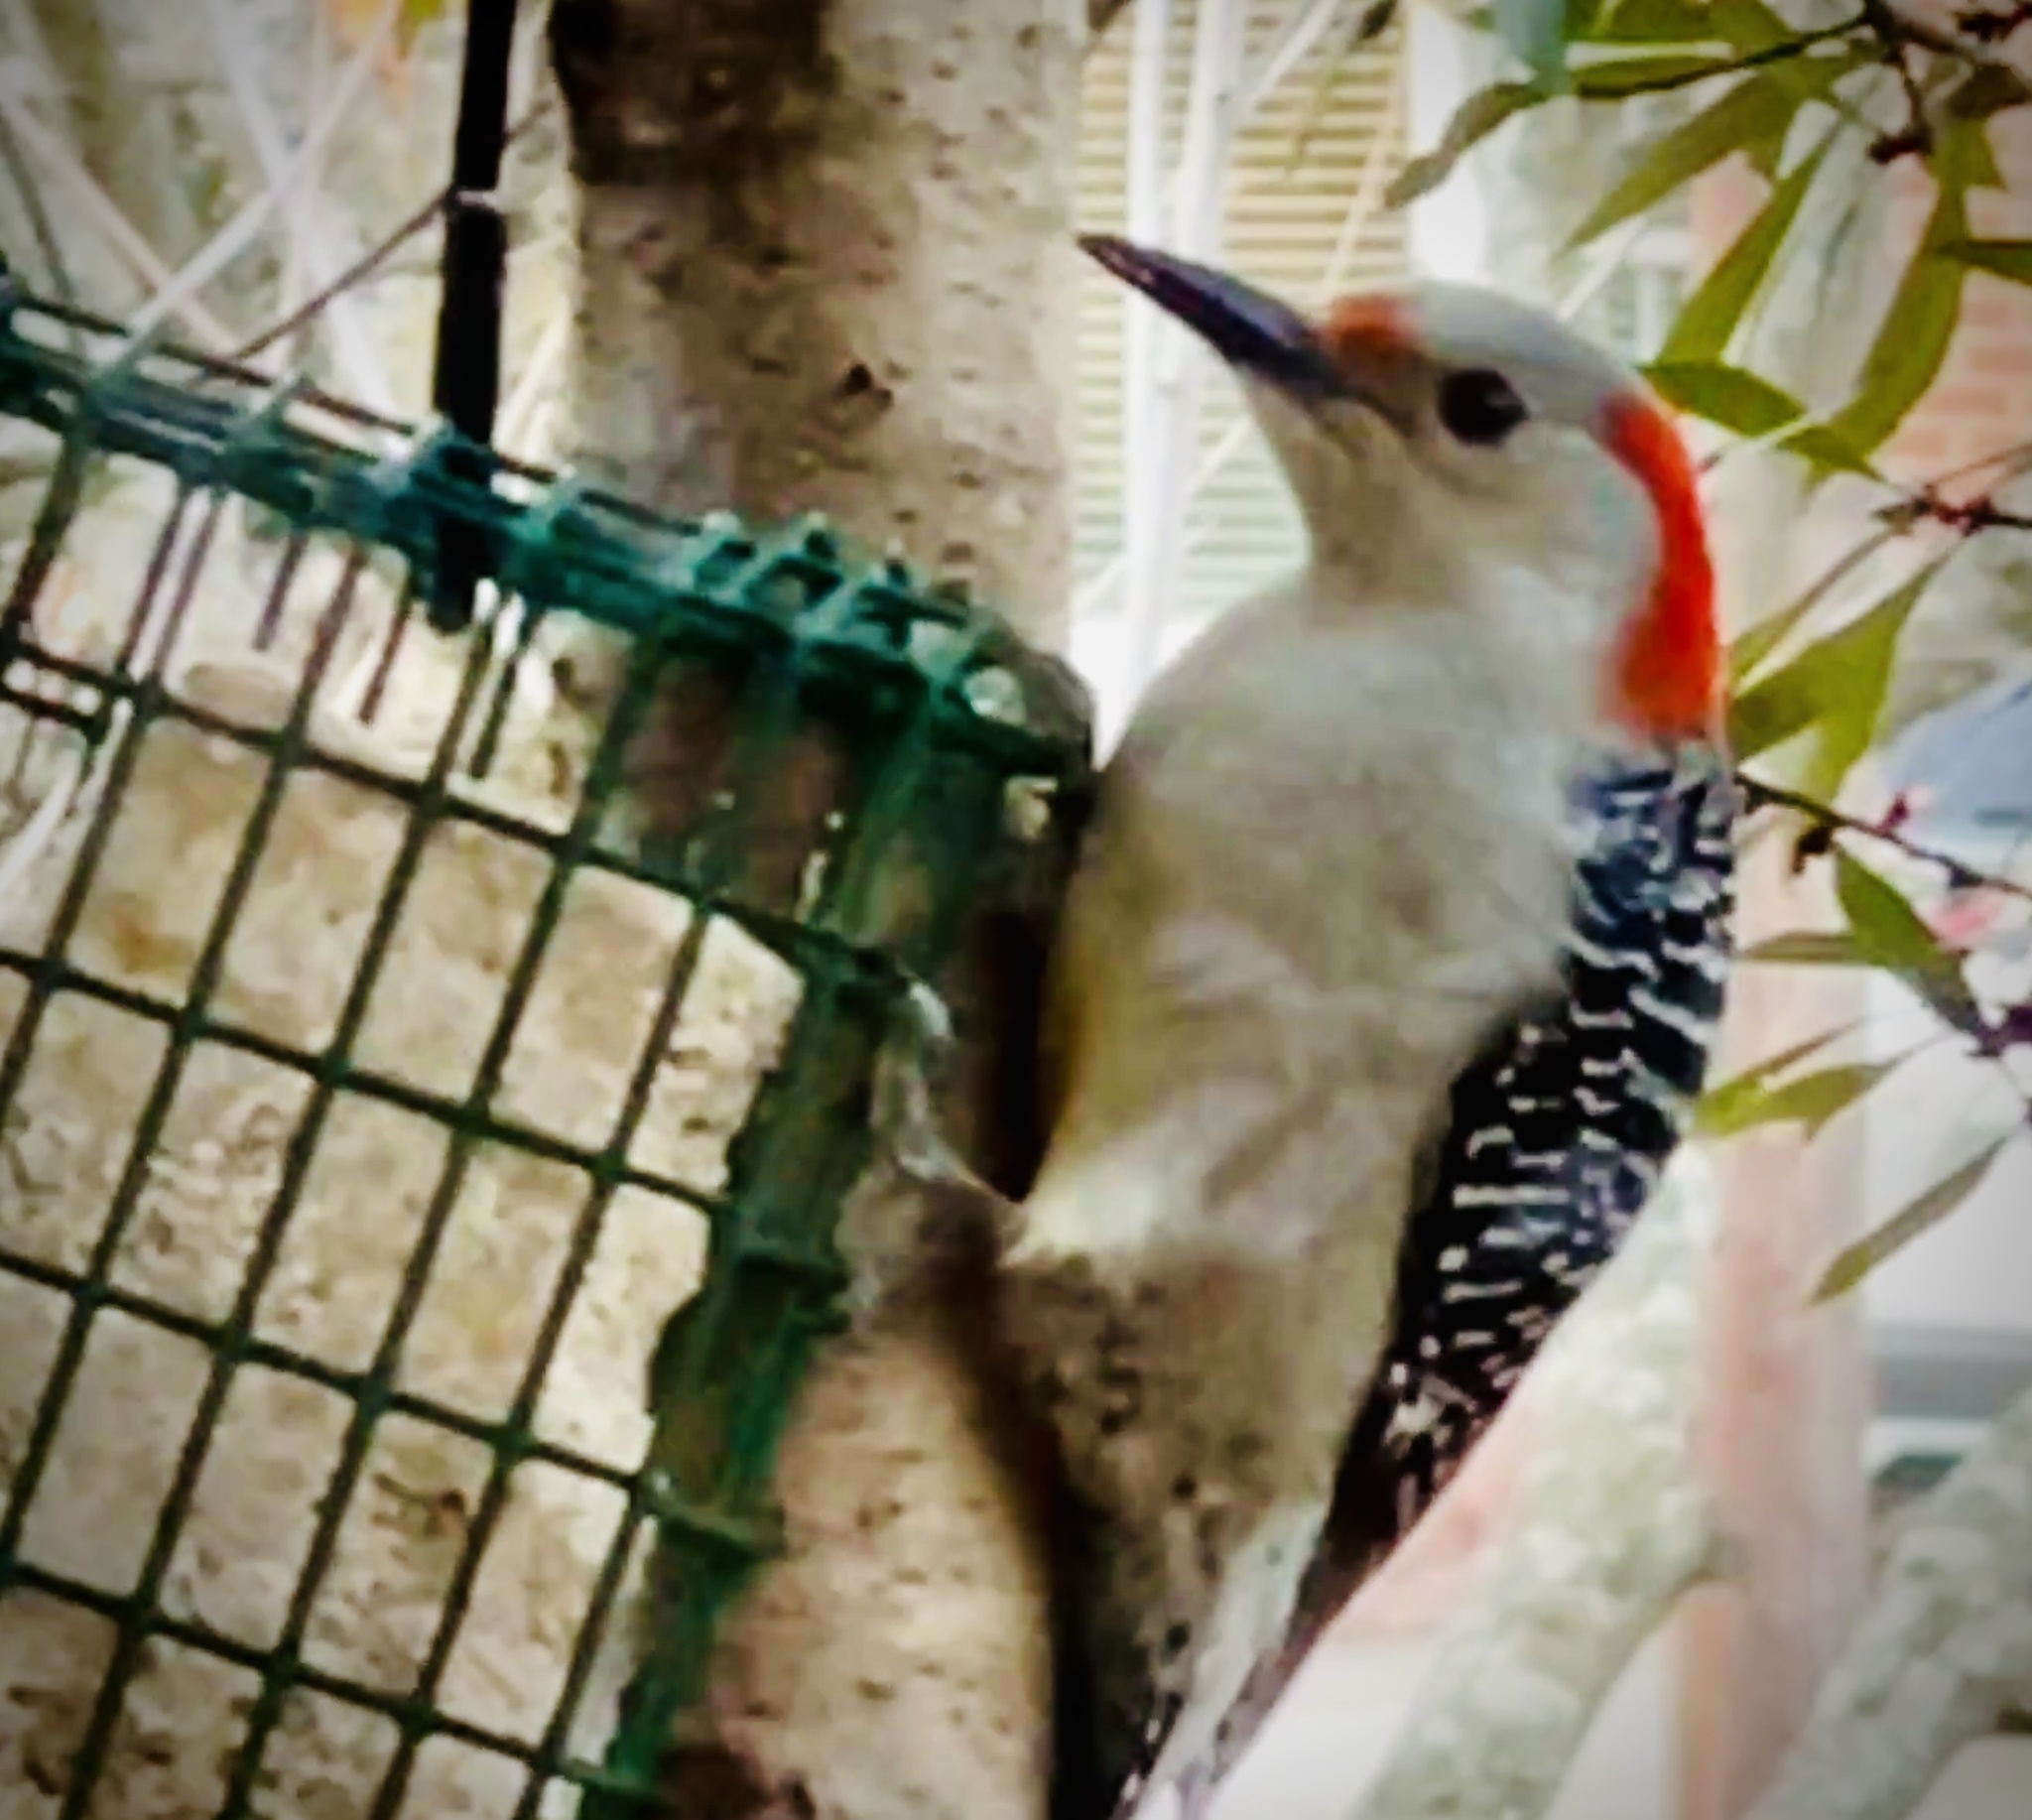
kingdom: Animalia
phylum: Chordata
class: Aves
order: Piciformes
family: Picidae
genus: Melanerpes
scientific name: Melanerpes carolinus
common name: Red-bellied woodpecker
